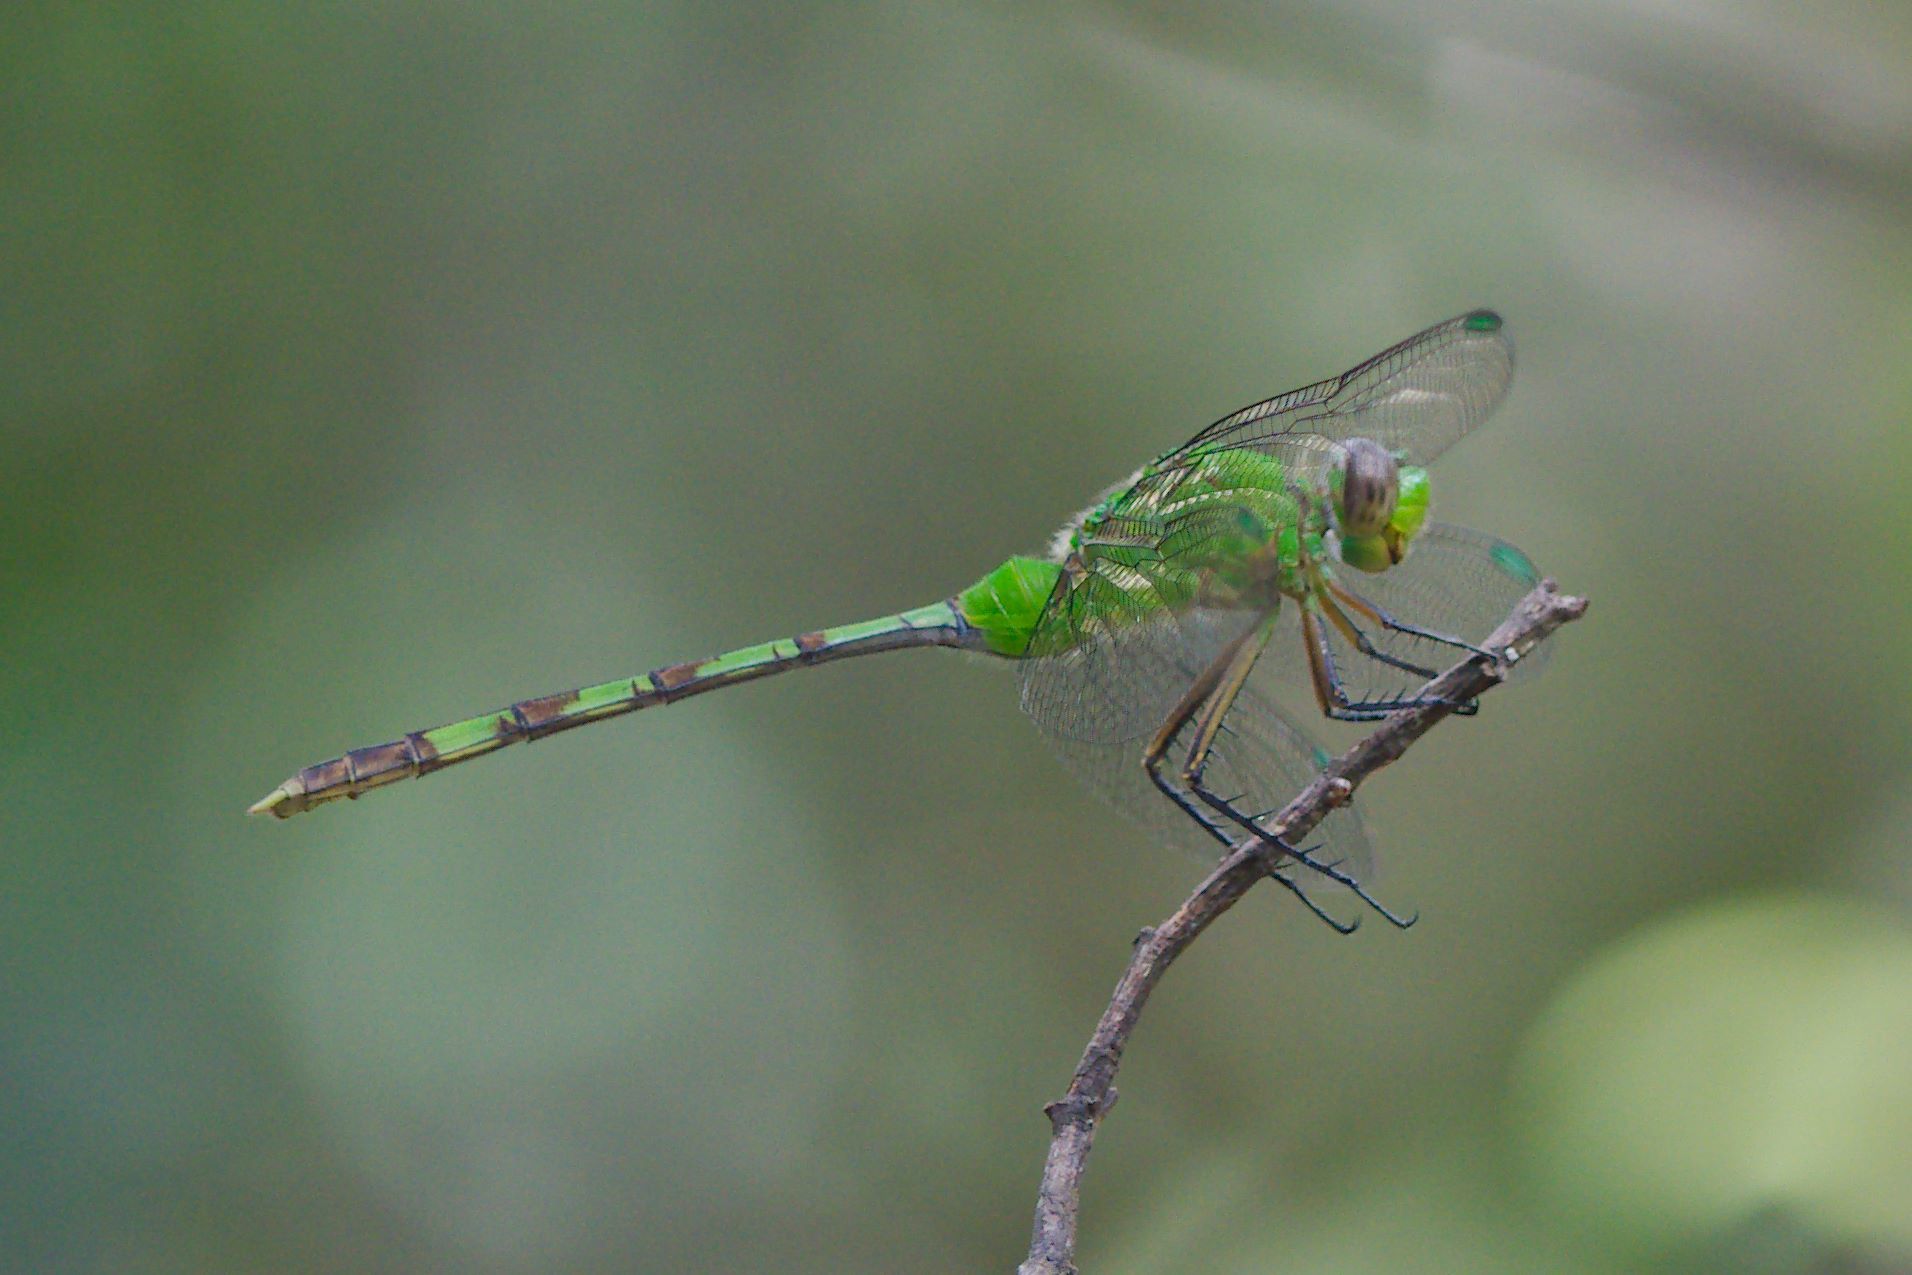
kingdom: Animalia
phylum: Arthropoda
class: Insecta
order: Odonata
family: Libellulidae
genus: Erythemis
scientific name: Erythemis vesiculosa
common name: Great pondhawk
